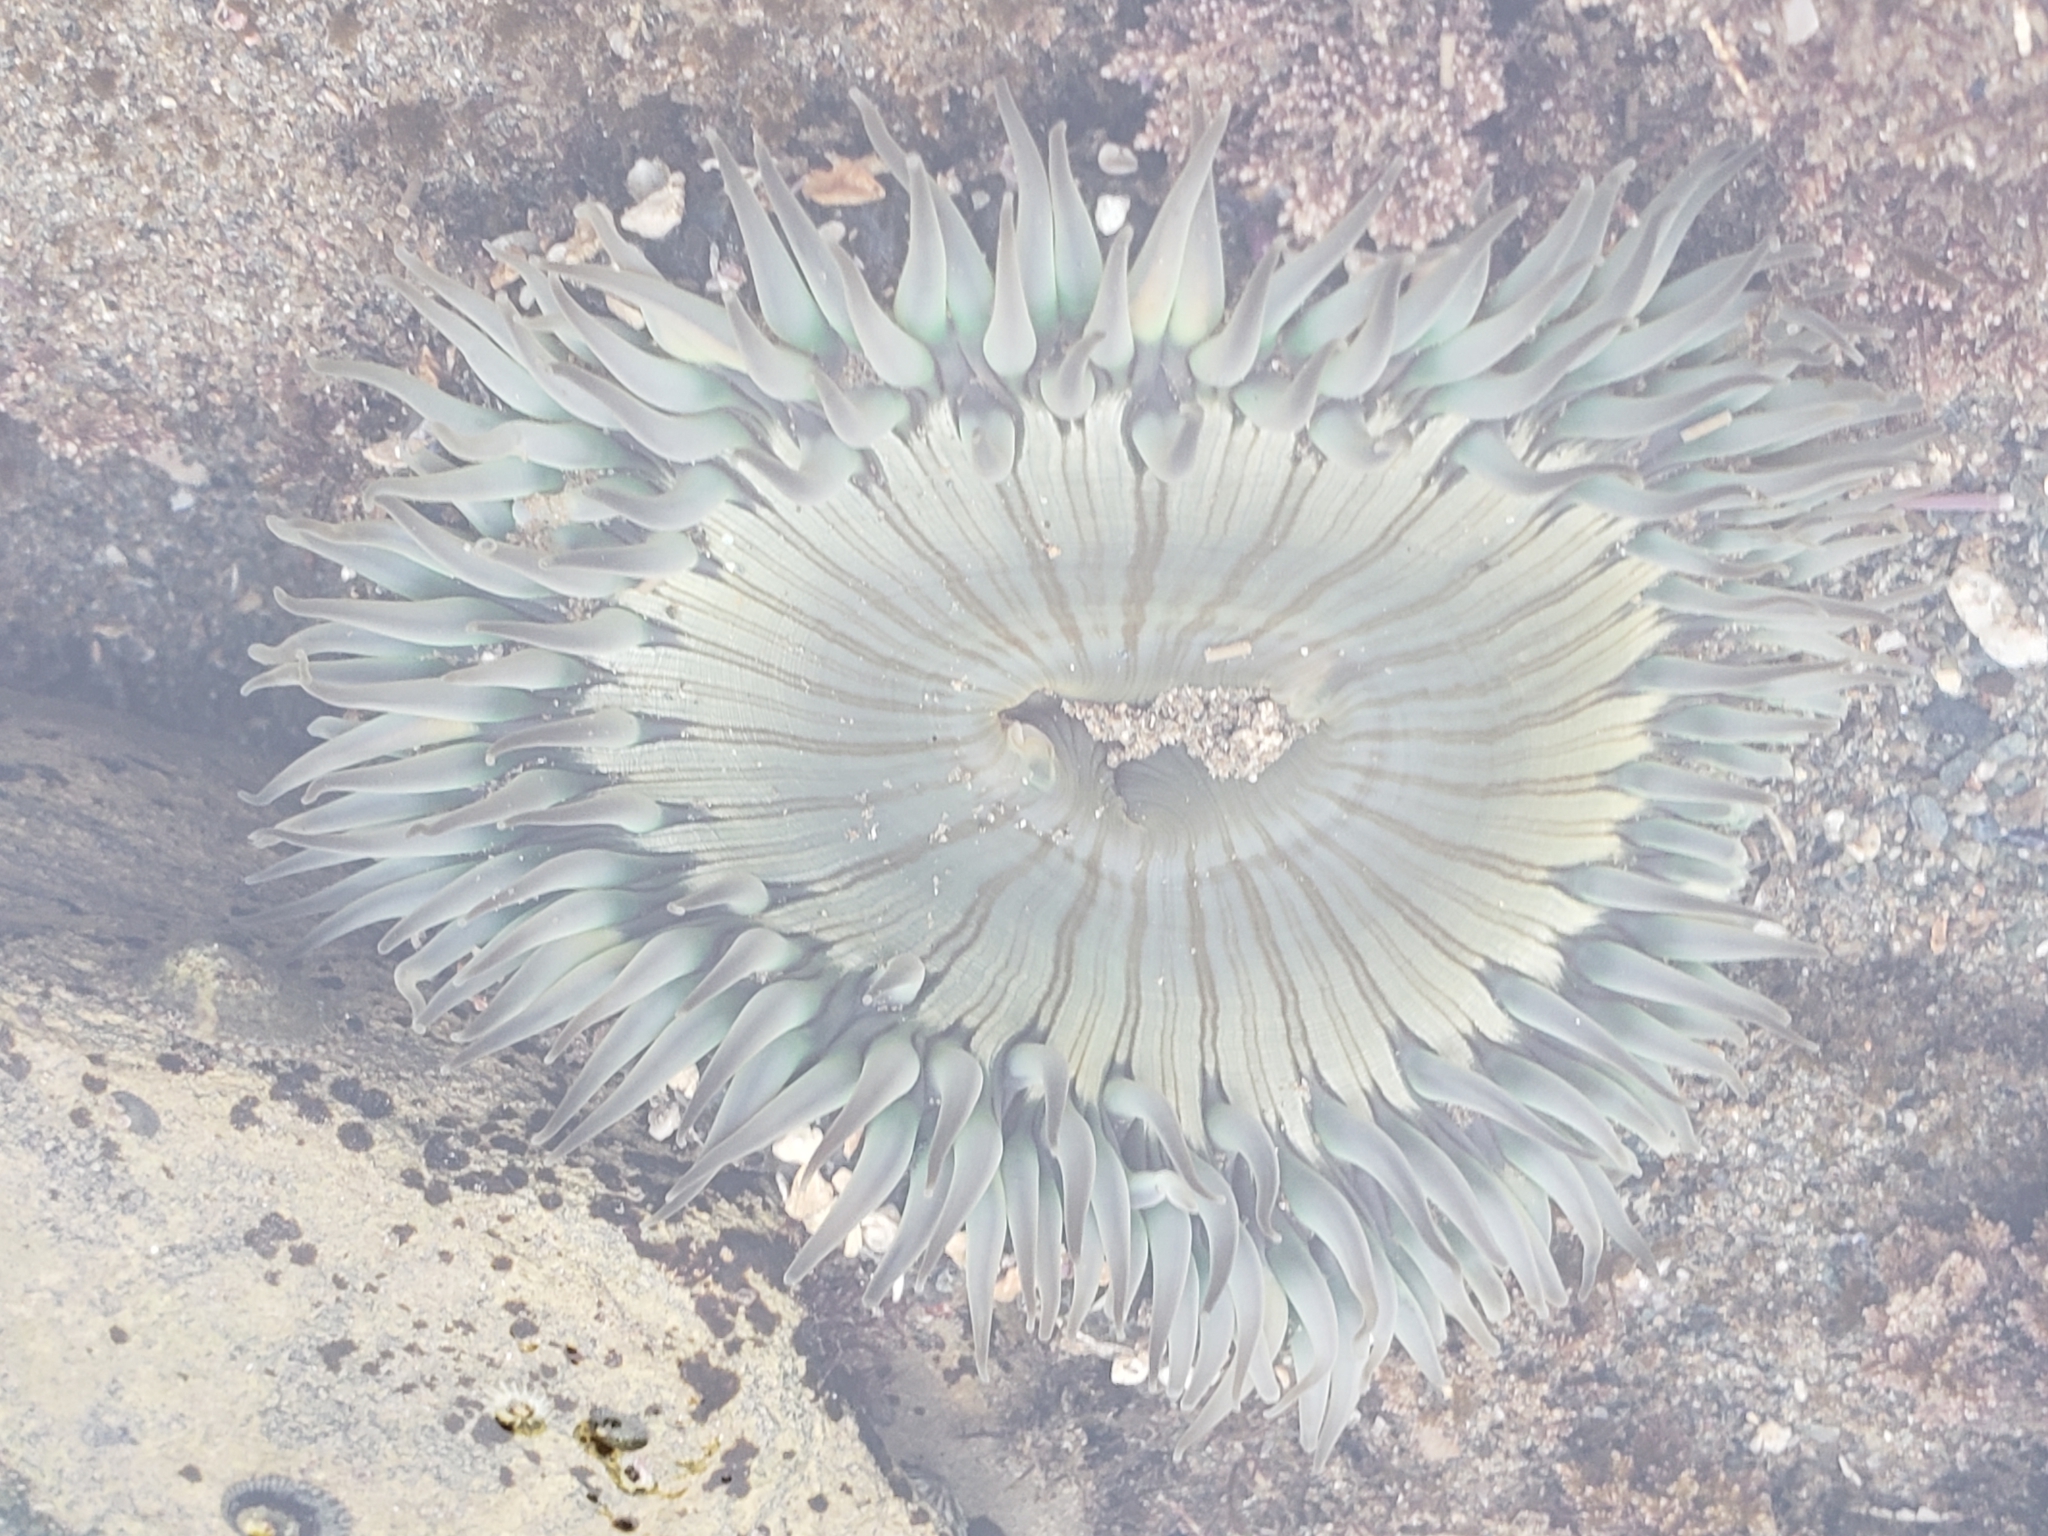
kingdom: Animalia
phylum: Cnidaria
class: Anthozoa
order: Actiniaria
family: Actiniidae
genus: Anthopleura
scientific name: Anthopleura sola
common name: Sun anemone
